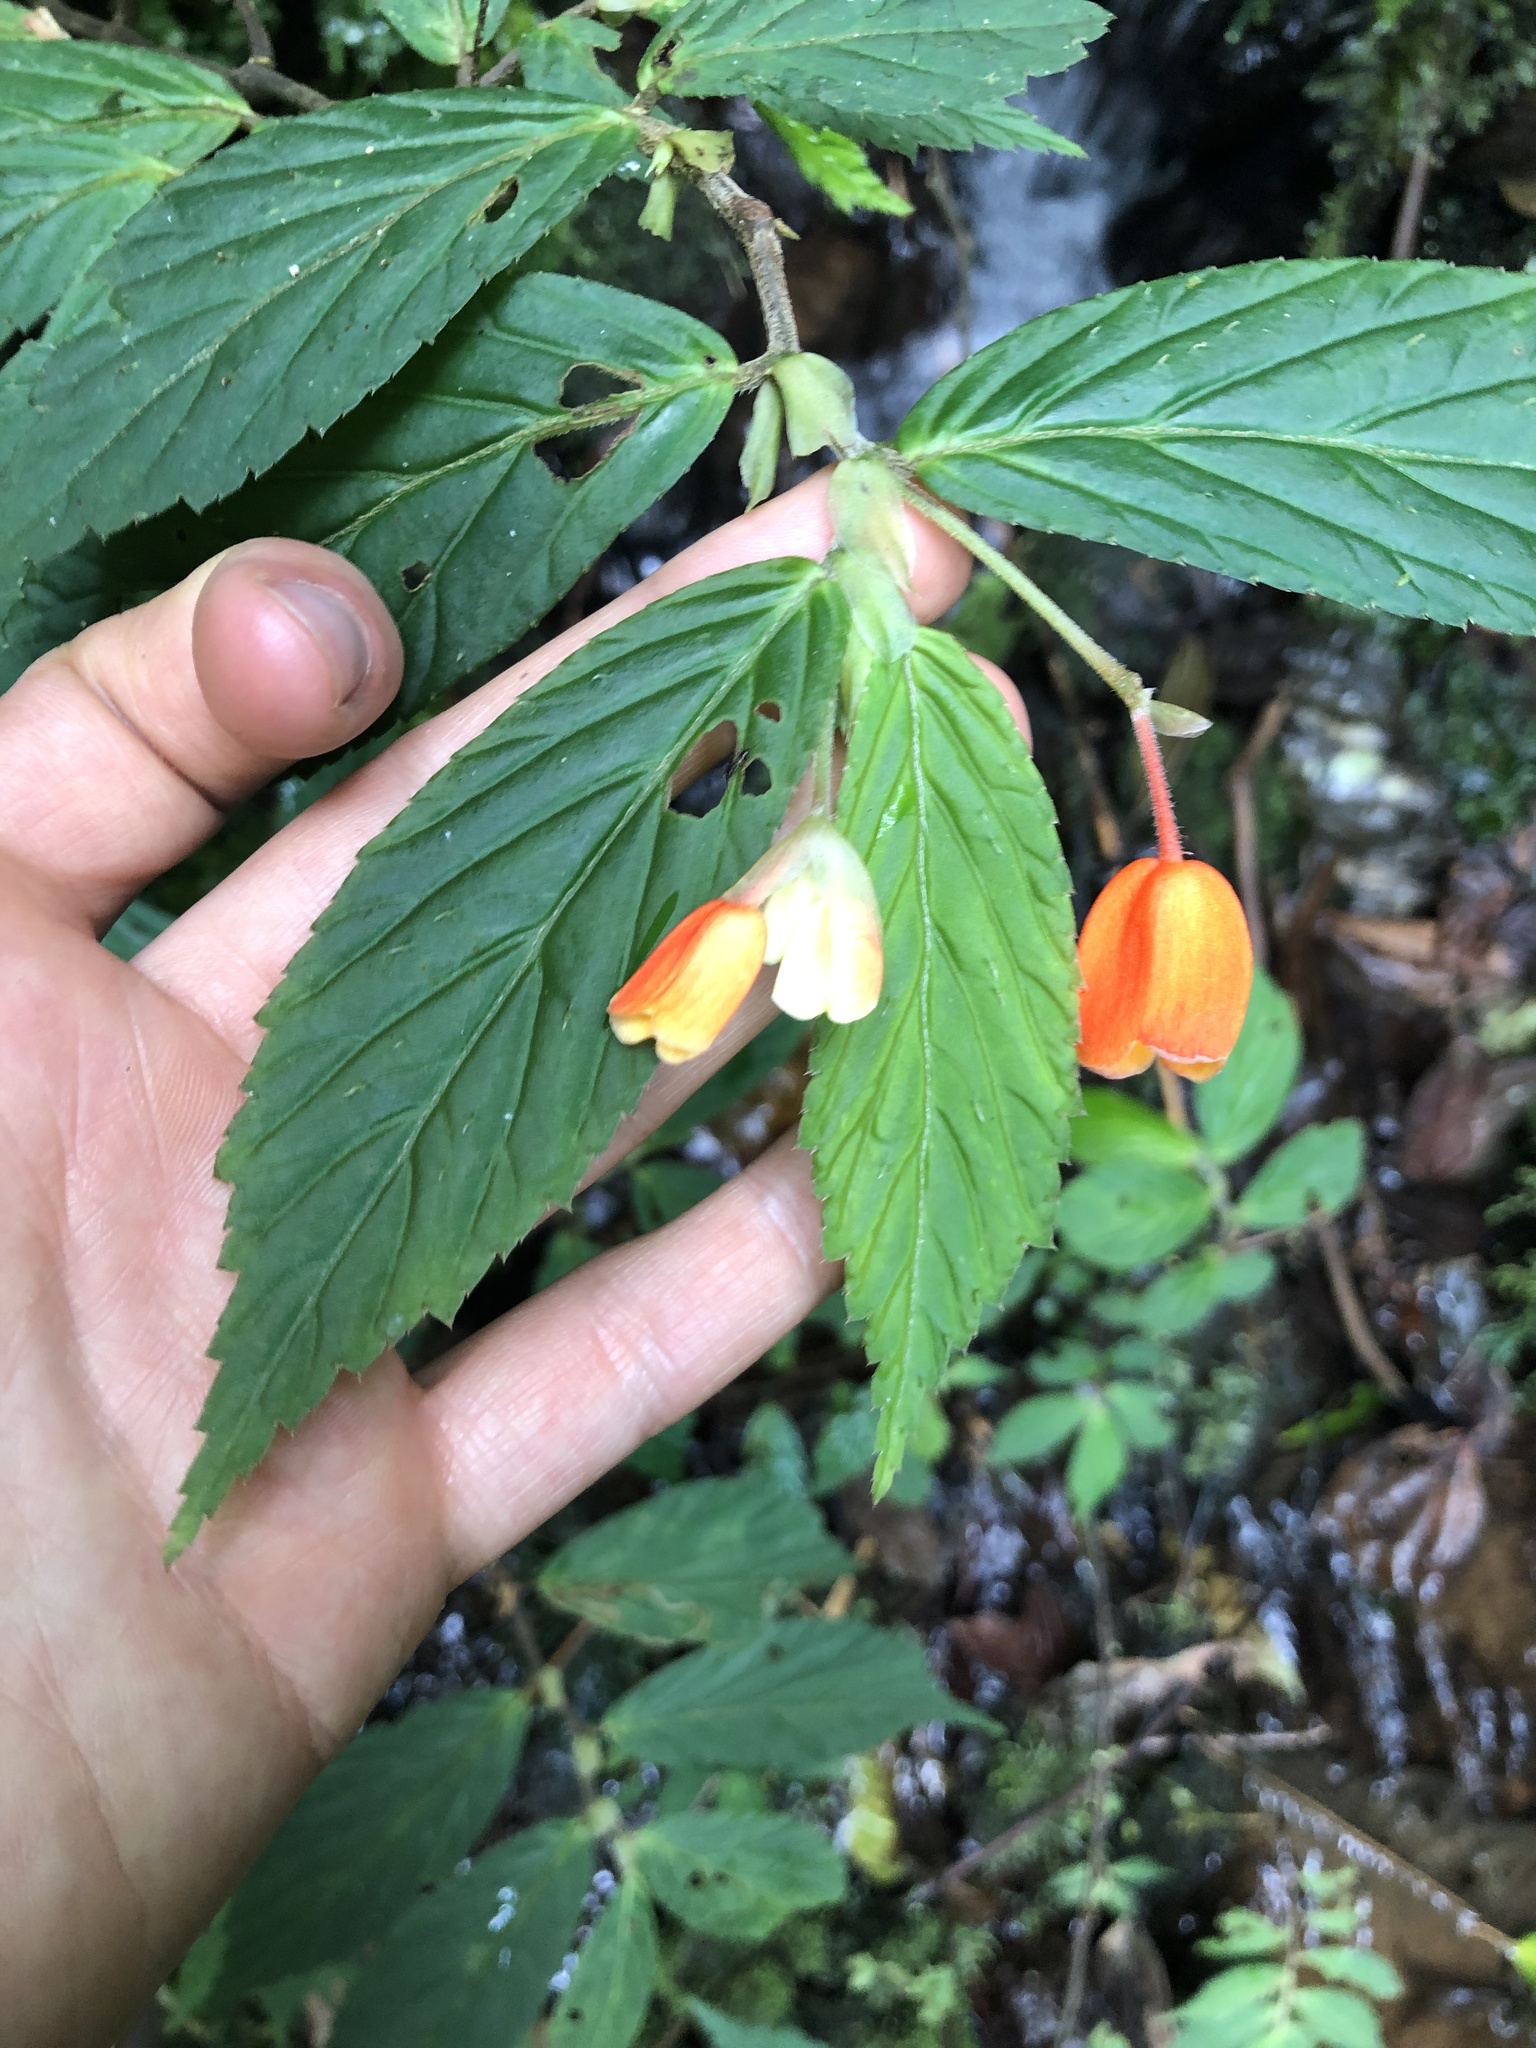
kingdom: Plantae
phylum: Tracheophyta
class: Magnoliopsida
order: Cucurbitales
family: Begoniaceae
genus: Begonia
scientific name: Begonia kalbreyeri
